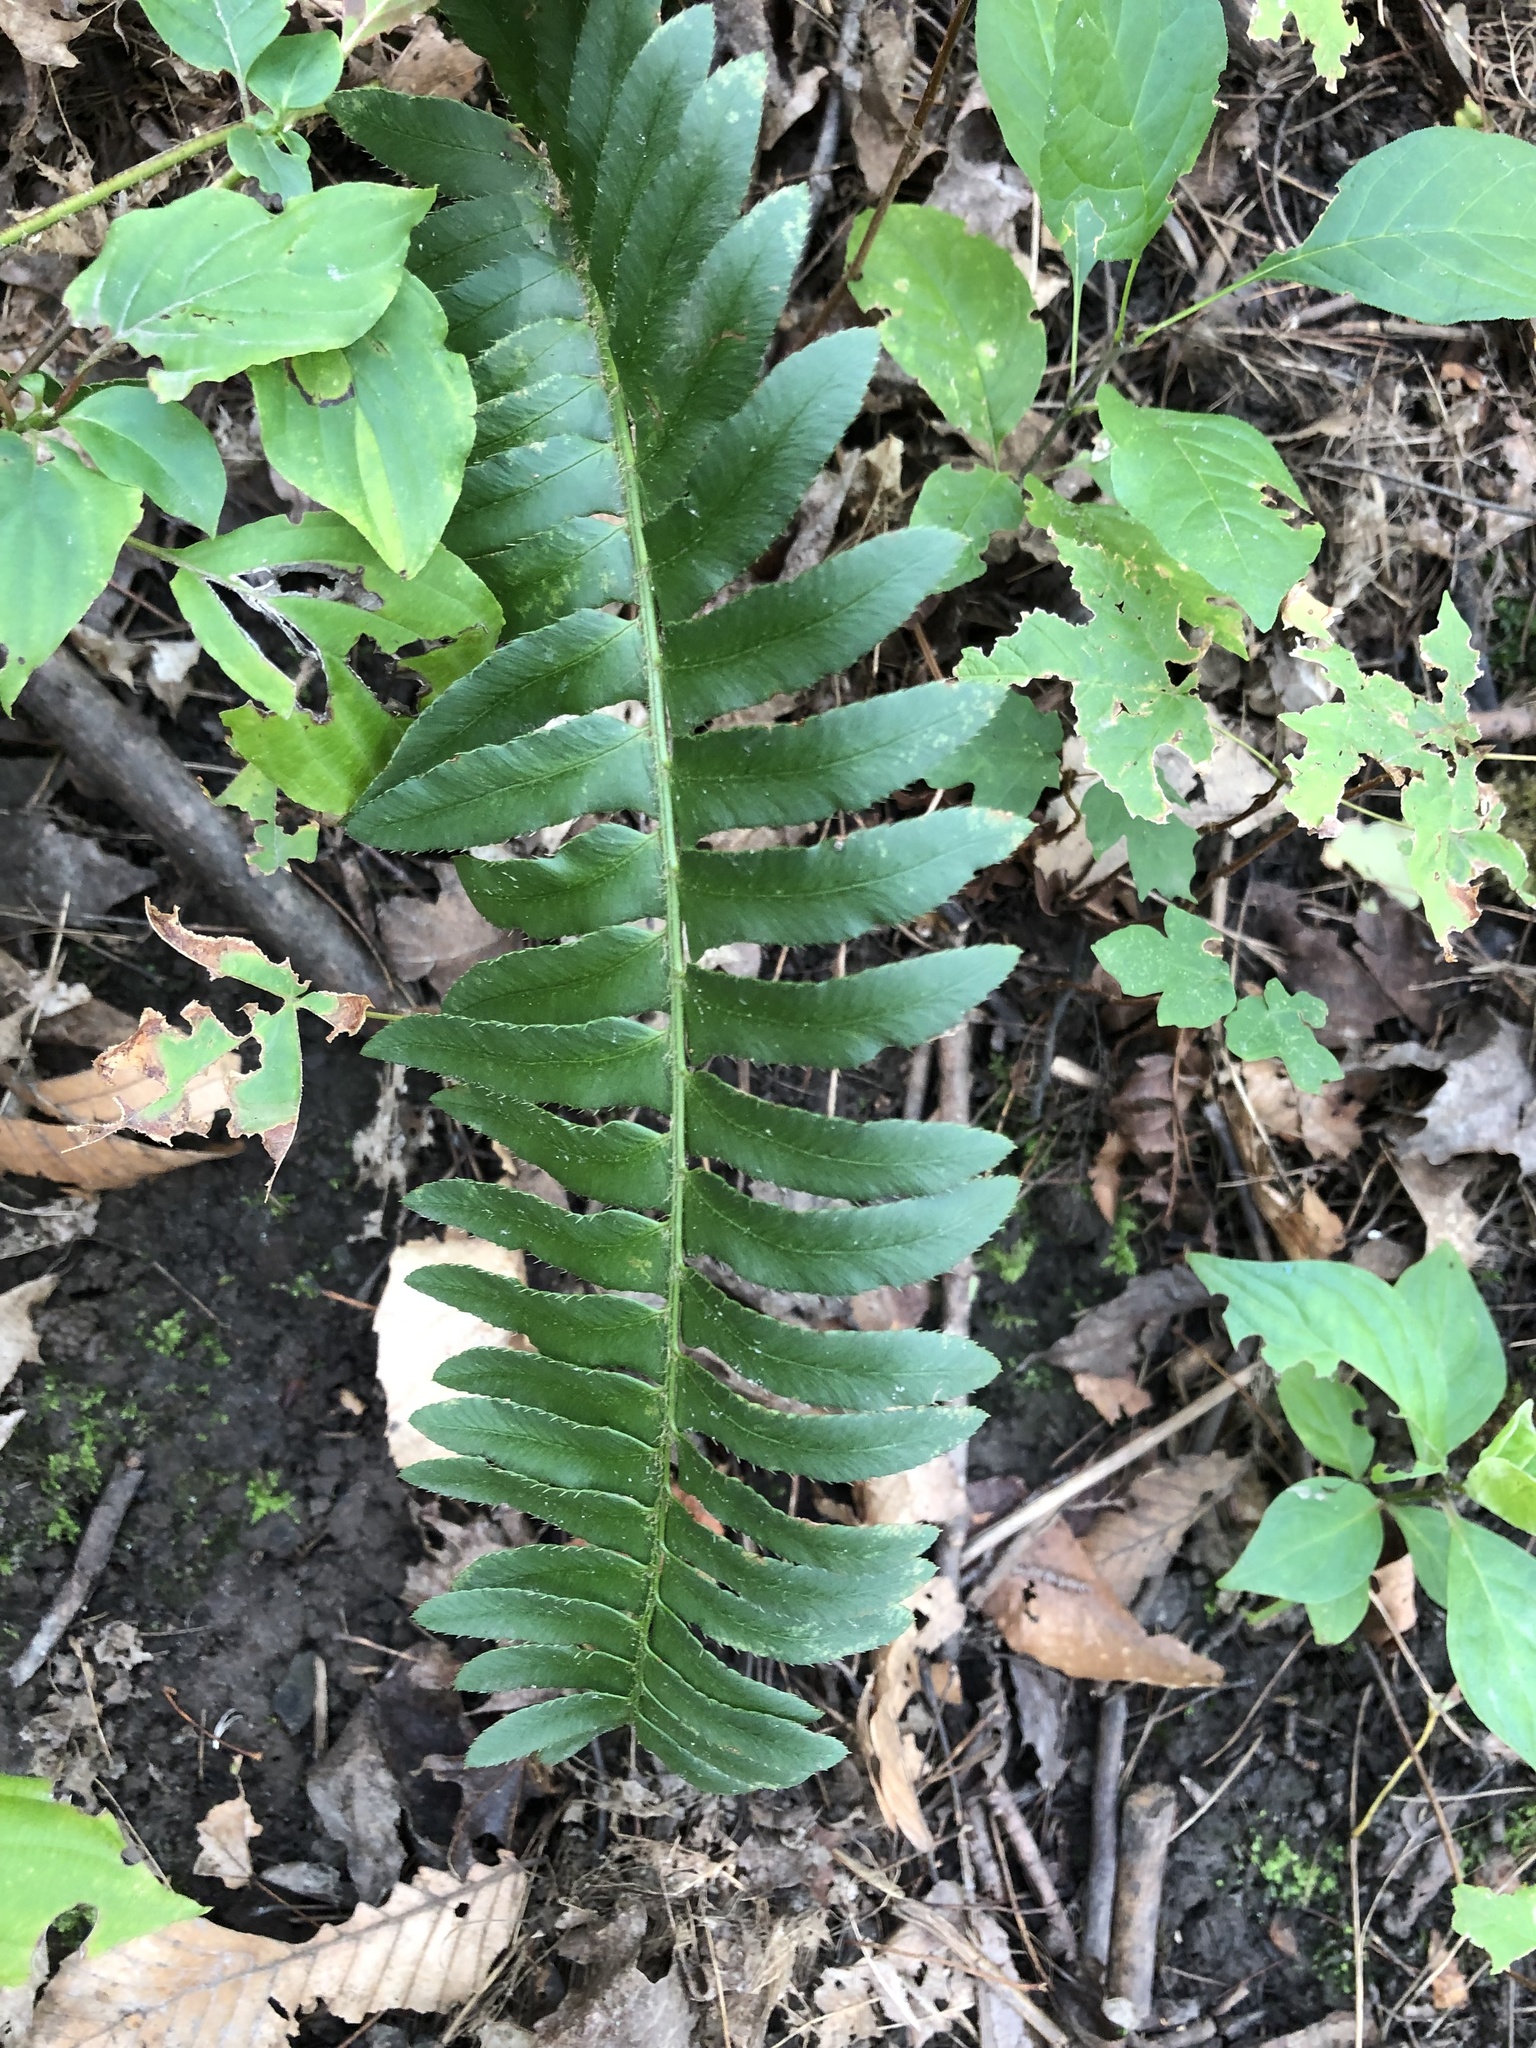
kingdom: Plantae
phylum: Tracheophyta
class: Polypodiopsida
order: Polypodiales
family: Dryopteridaceae
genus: Polystichum
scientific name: Polystichum acrostichoides
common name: Christmas fern
